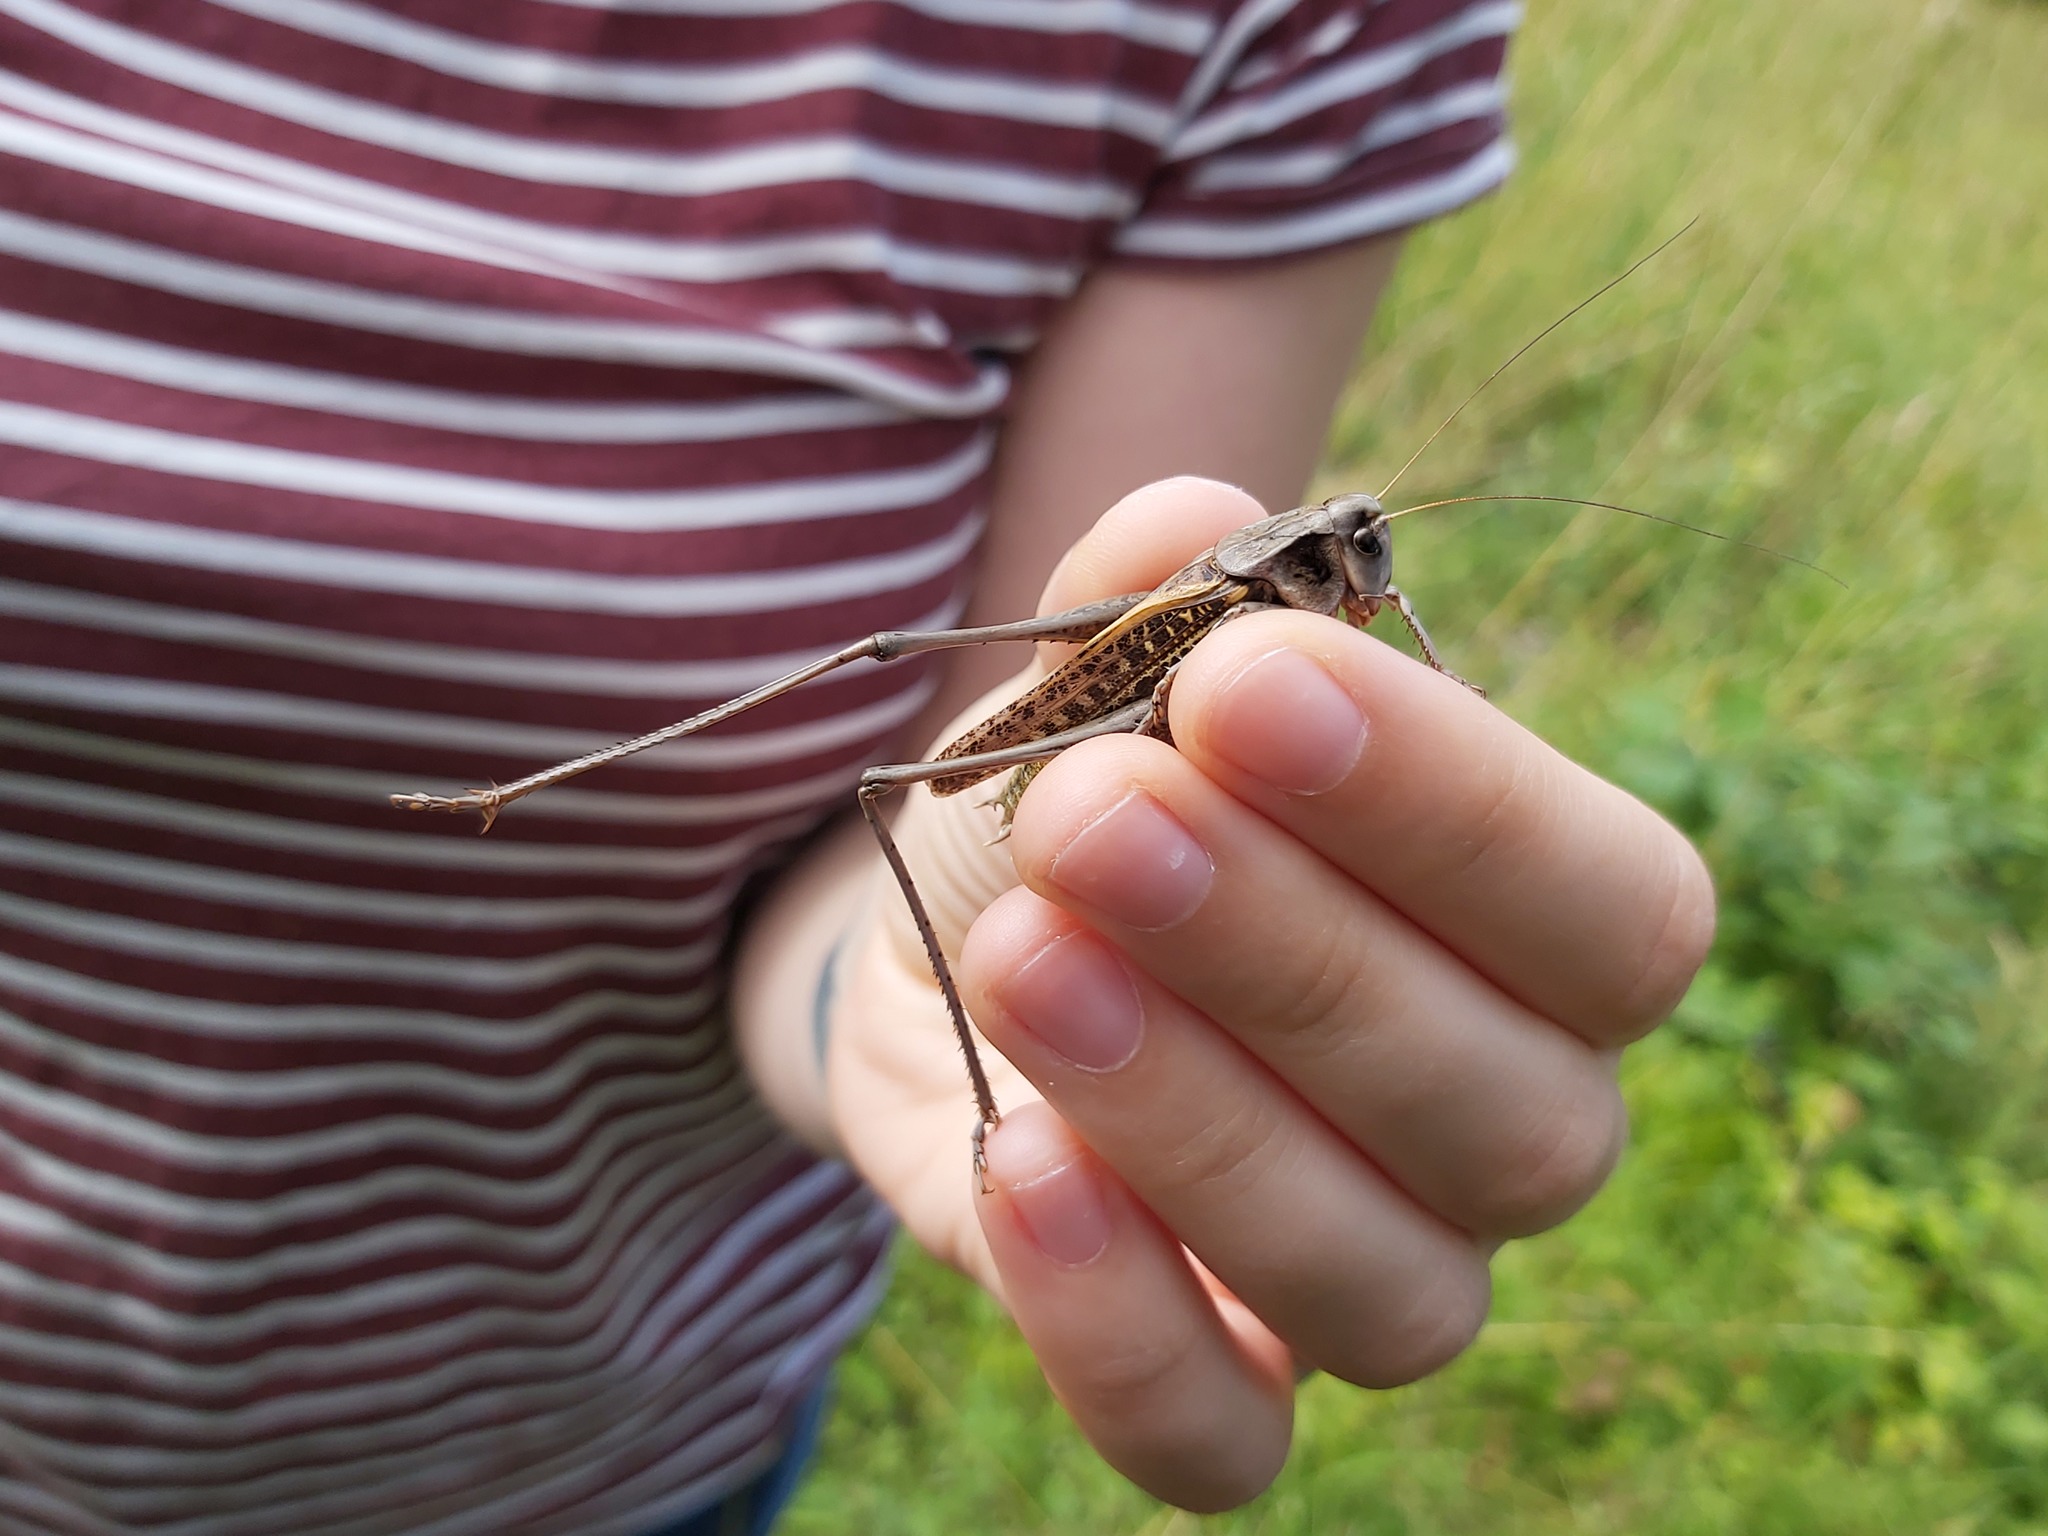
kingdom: Animalia
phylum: Arthropoda
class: Insecta
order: Orthoptera
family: Tettigoniidae
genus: Decticus
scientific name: Decticus verrucivorus
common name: Wart-biter
